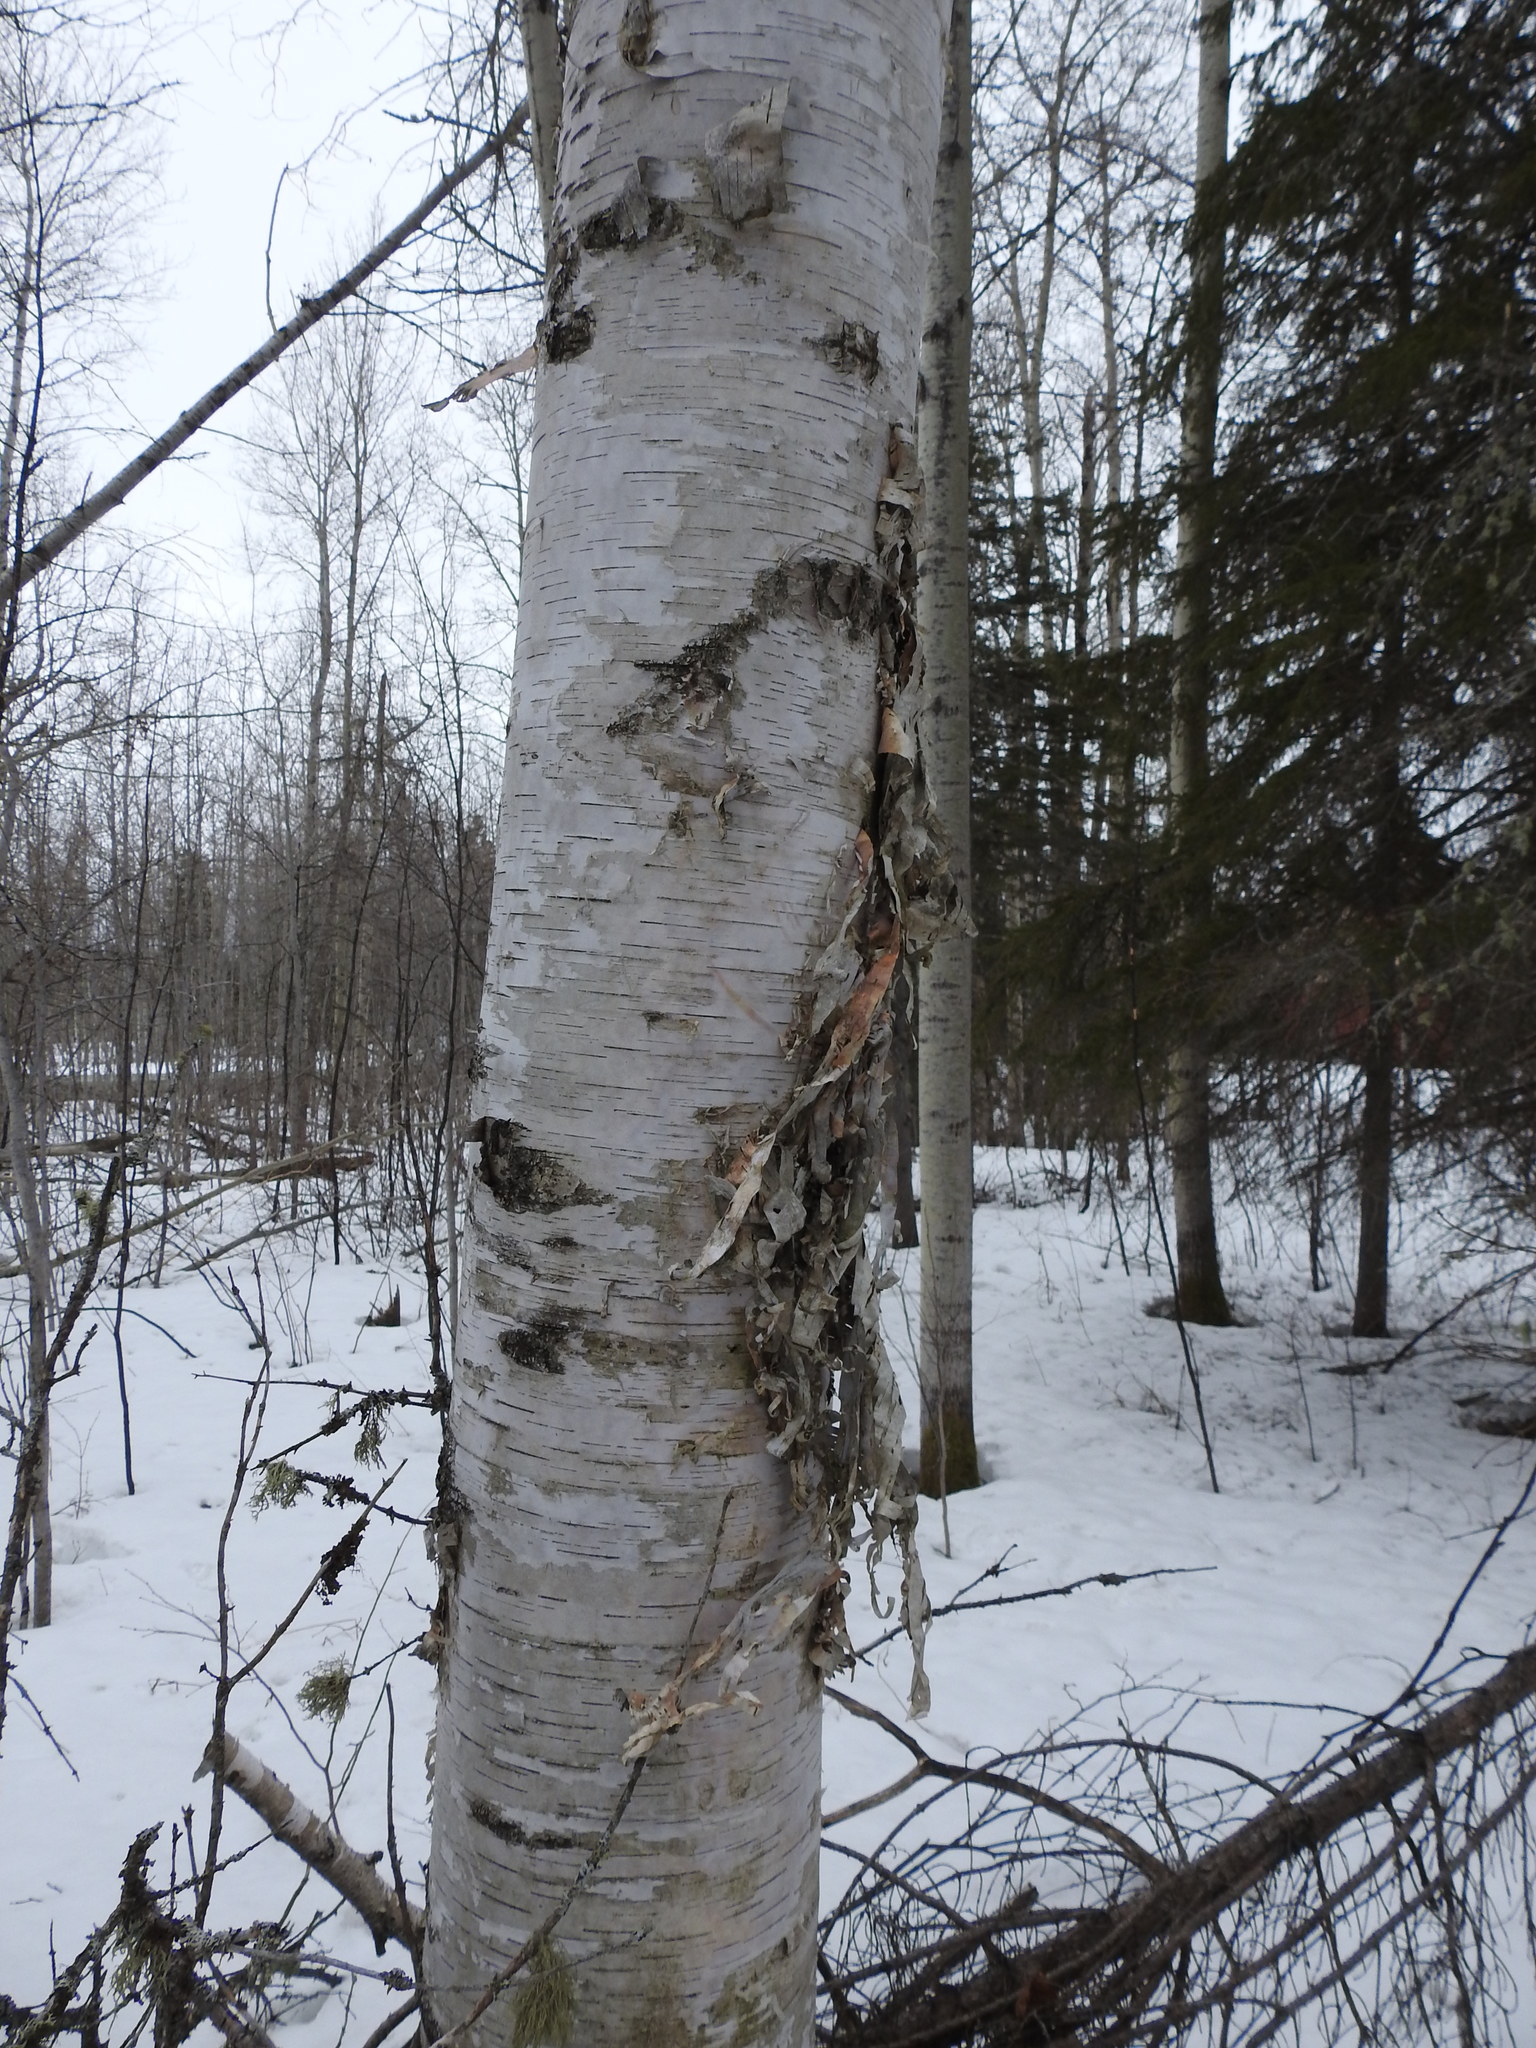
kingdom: Plantae
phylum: Tracheophyta
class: Magnoliopsida
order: Fagales
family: Betulaceae
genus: Betula
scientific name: Betula papyrifera
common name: Paper birch
